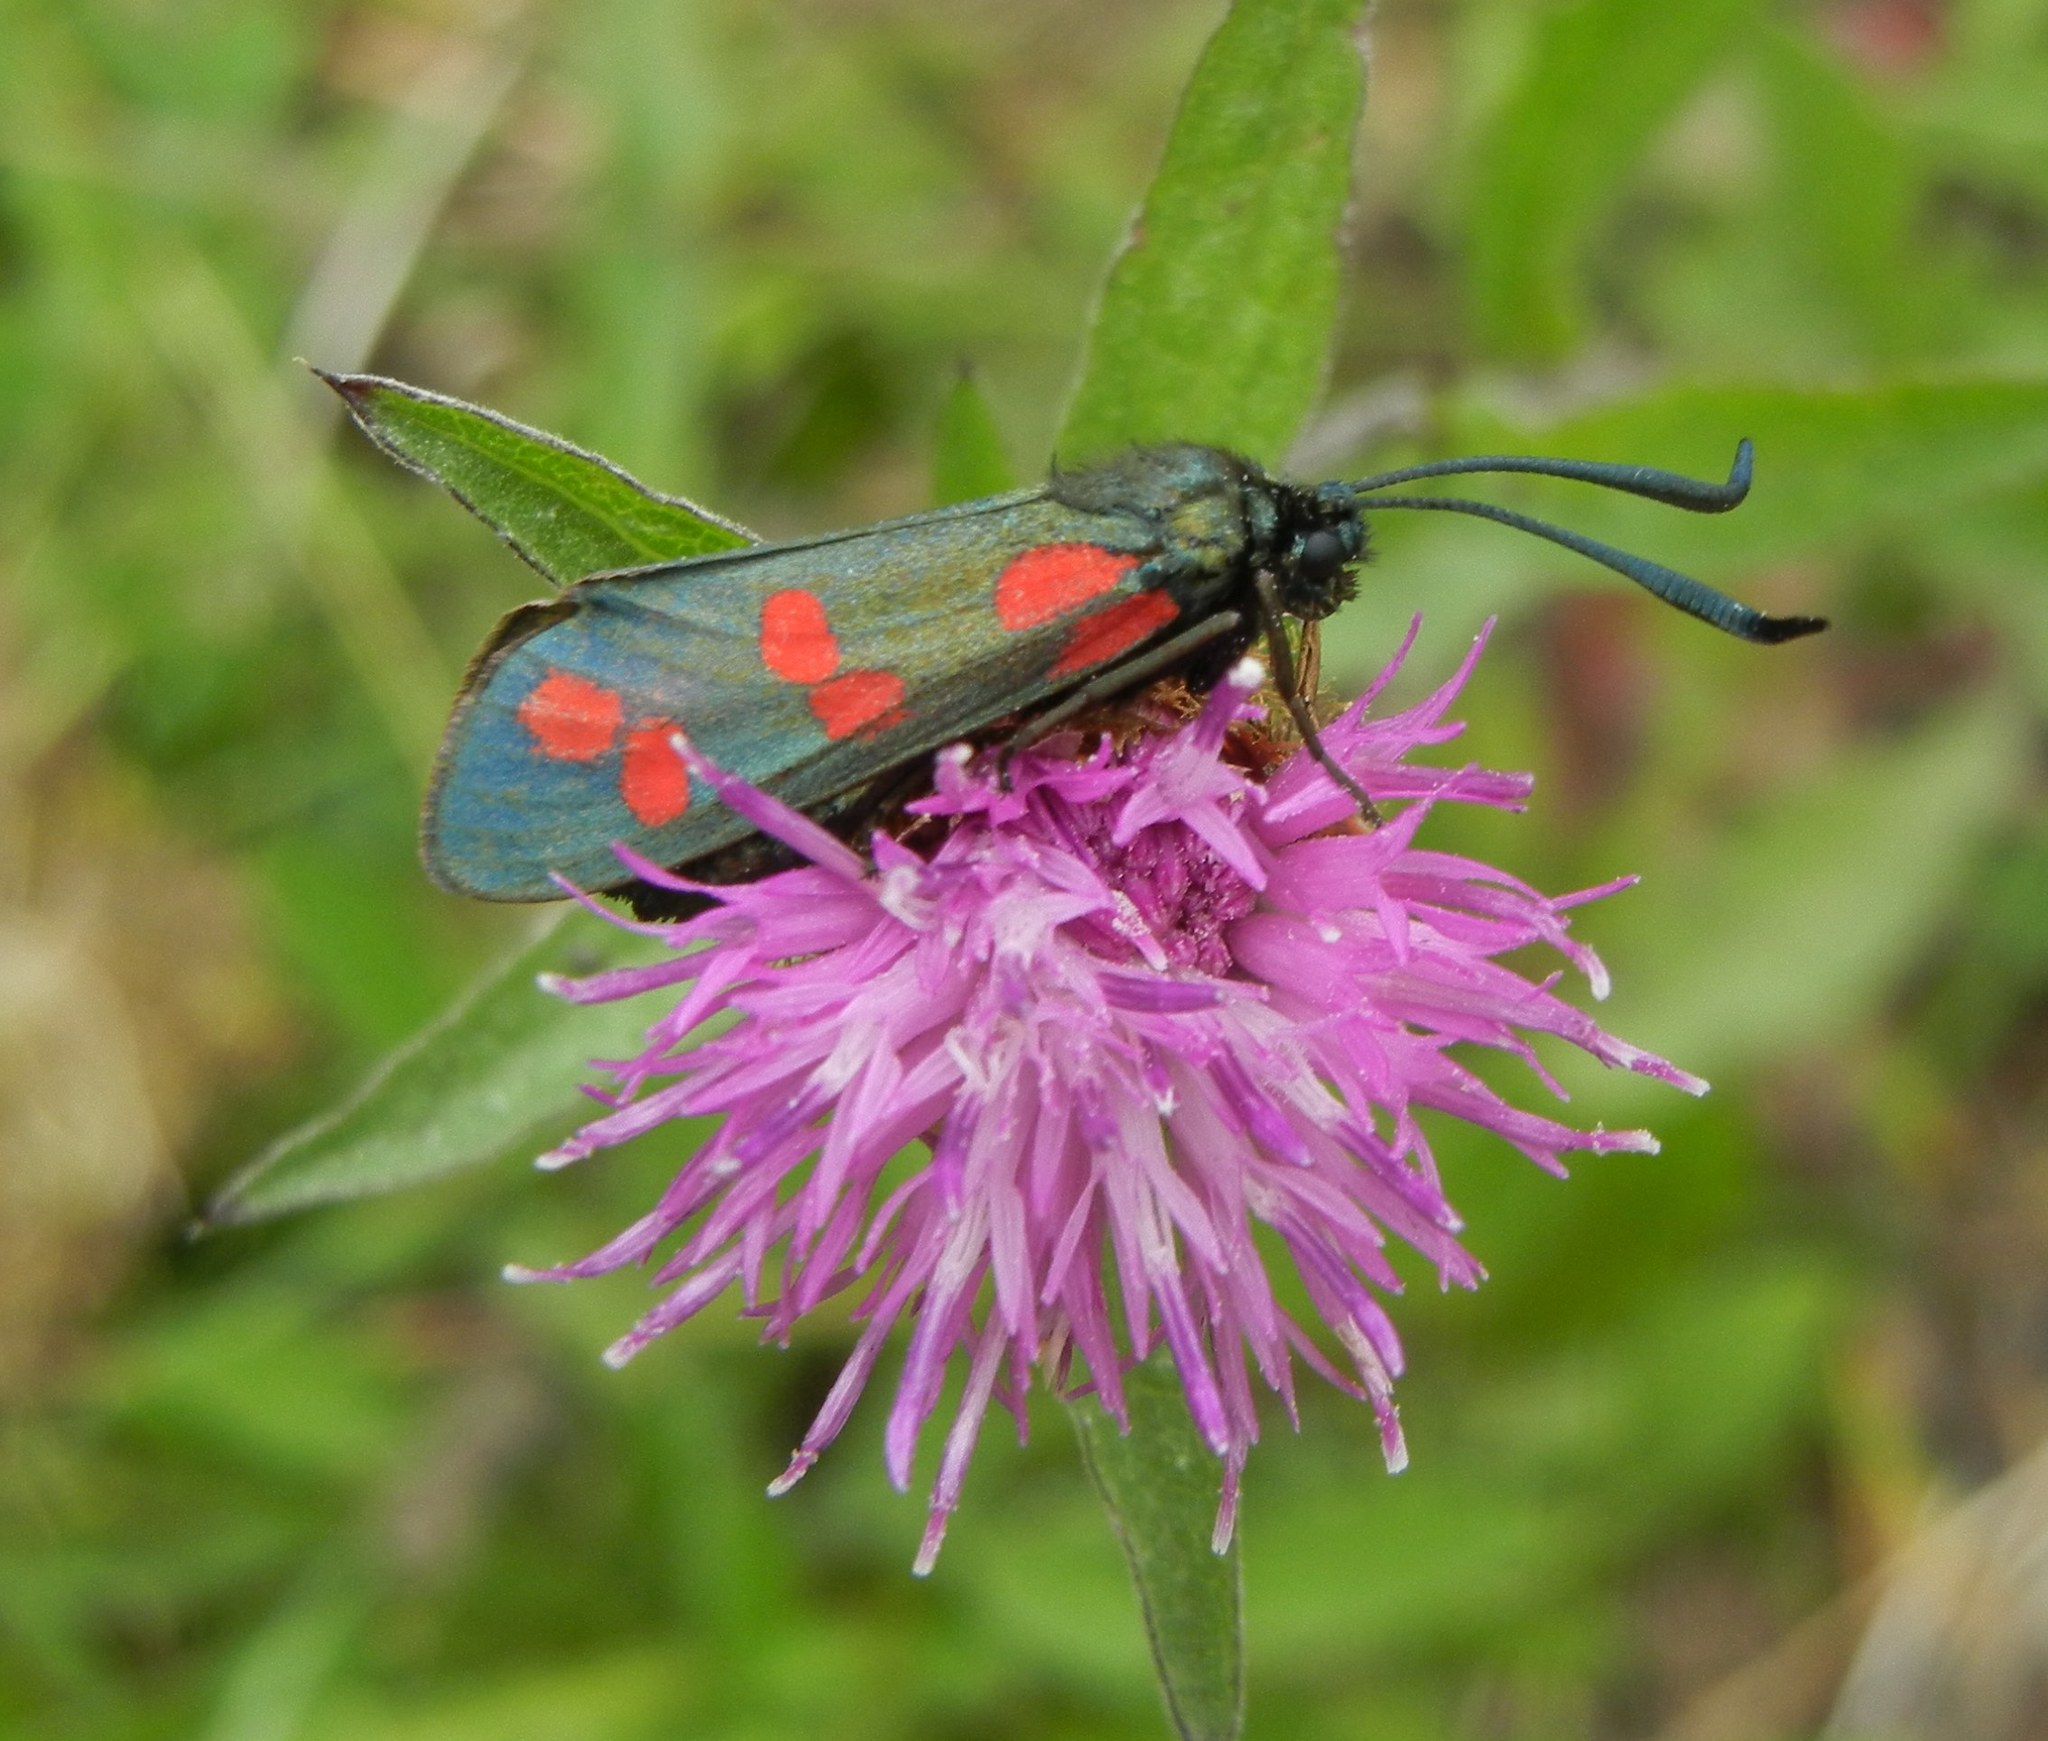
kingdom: Animalia
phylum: Arthropoda
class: Insecta
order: Lepidoptera
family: Zygaenidae
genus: Zygaena
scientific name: Zygaena filipendulae
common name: Six-spot burnet
